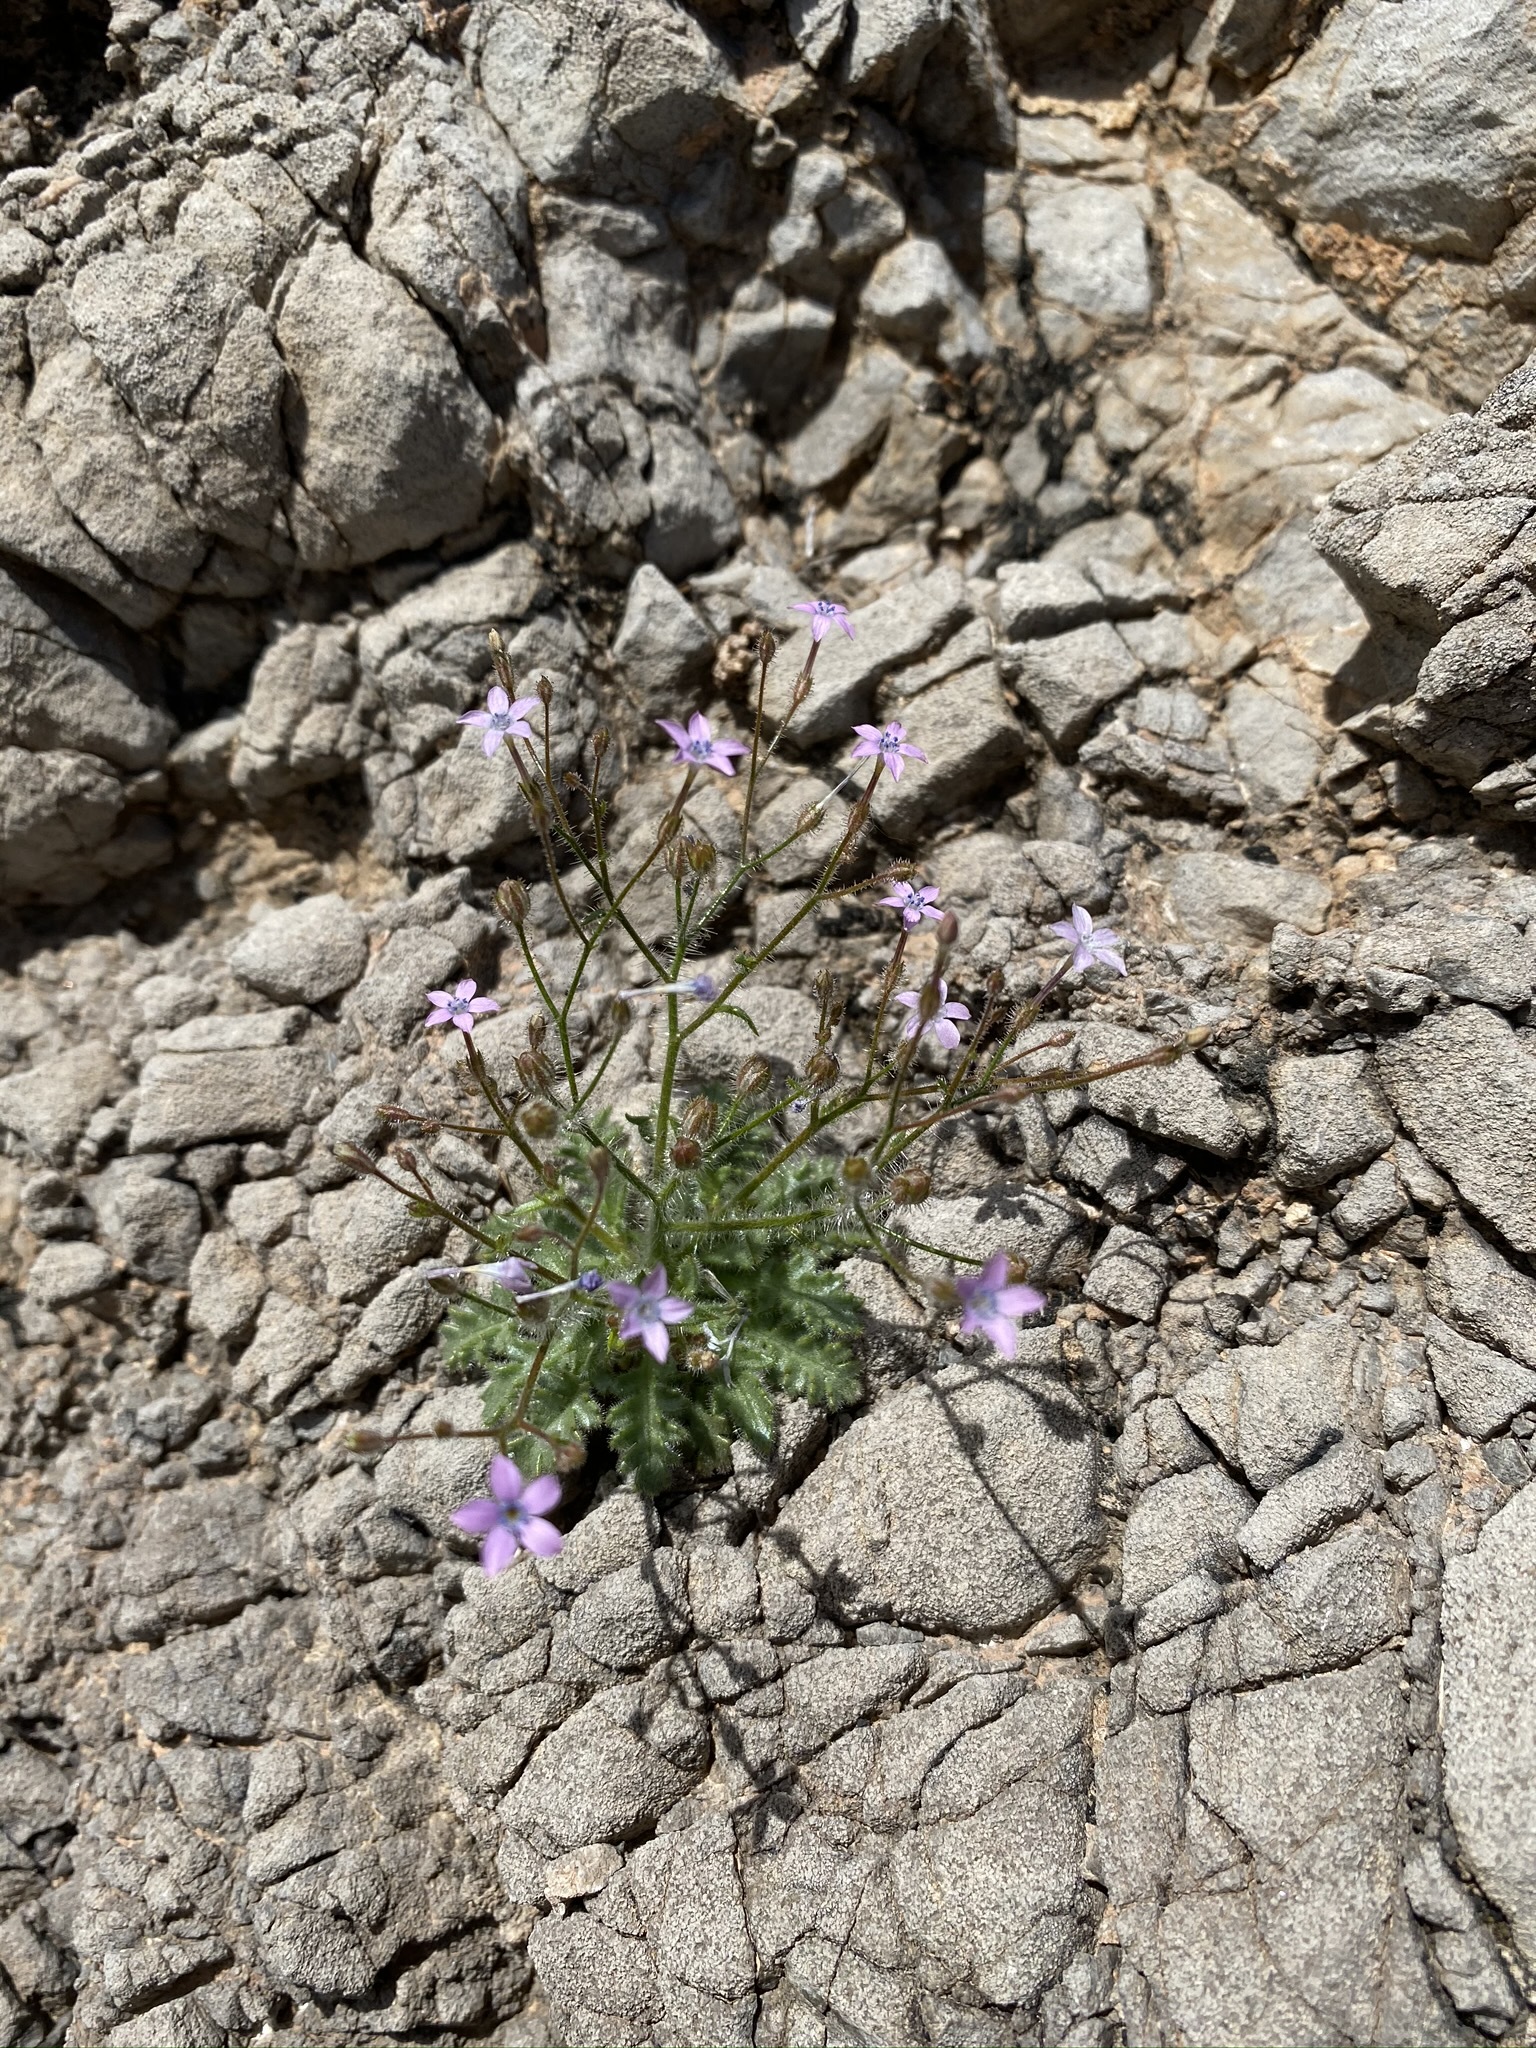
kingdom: Plantae
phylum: Tracheophyta
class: Magnoliopsida
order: Ericales
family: Polemoniaceae
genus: Gilia
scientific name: Gilia scopulorum
